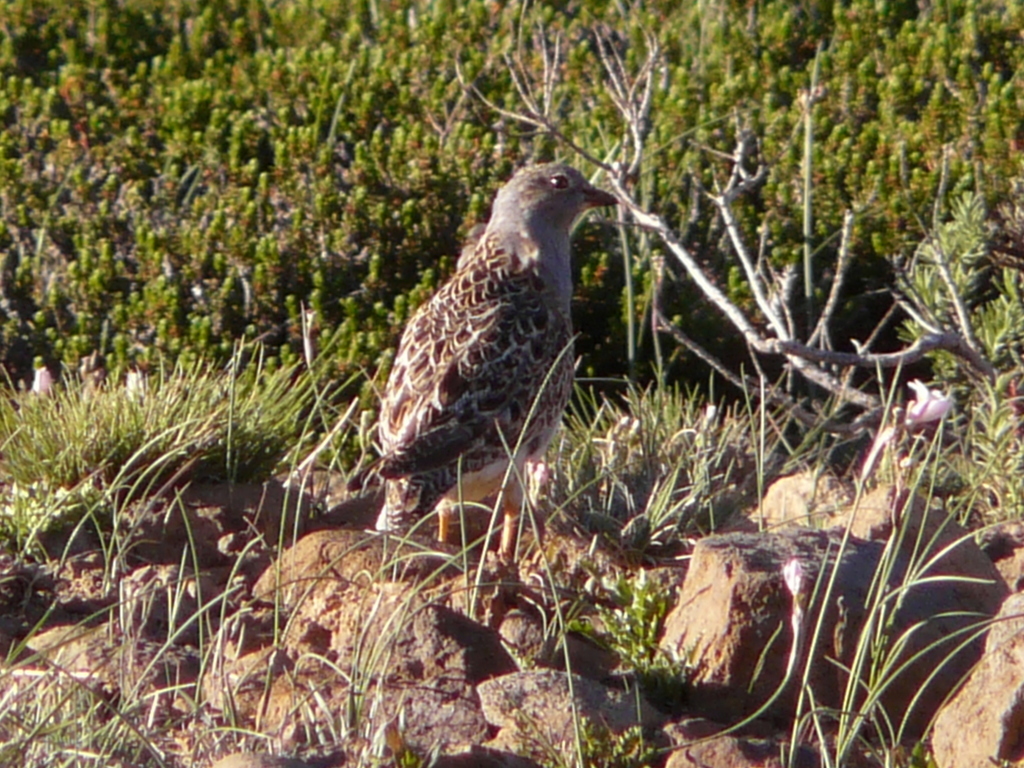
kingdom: Animalia
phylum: Chordata
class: Aves
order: Charadriiformes
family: Thinocoridae
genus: Thinocorus
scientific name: Thinocorus orbignyianus
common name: Grey-breasted seedsnipe
